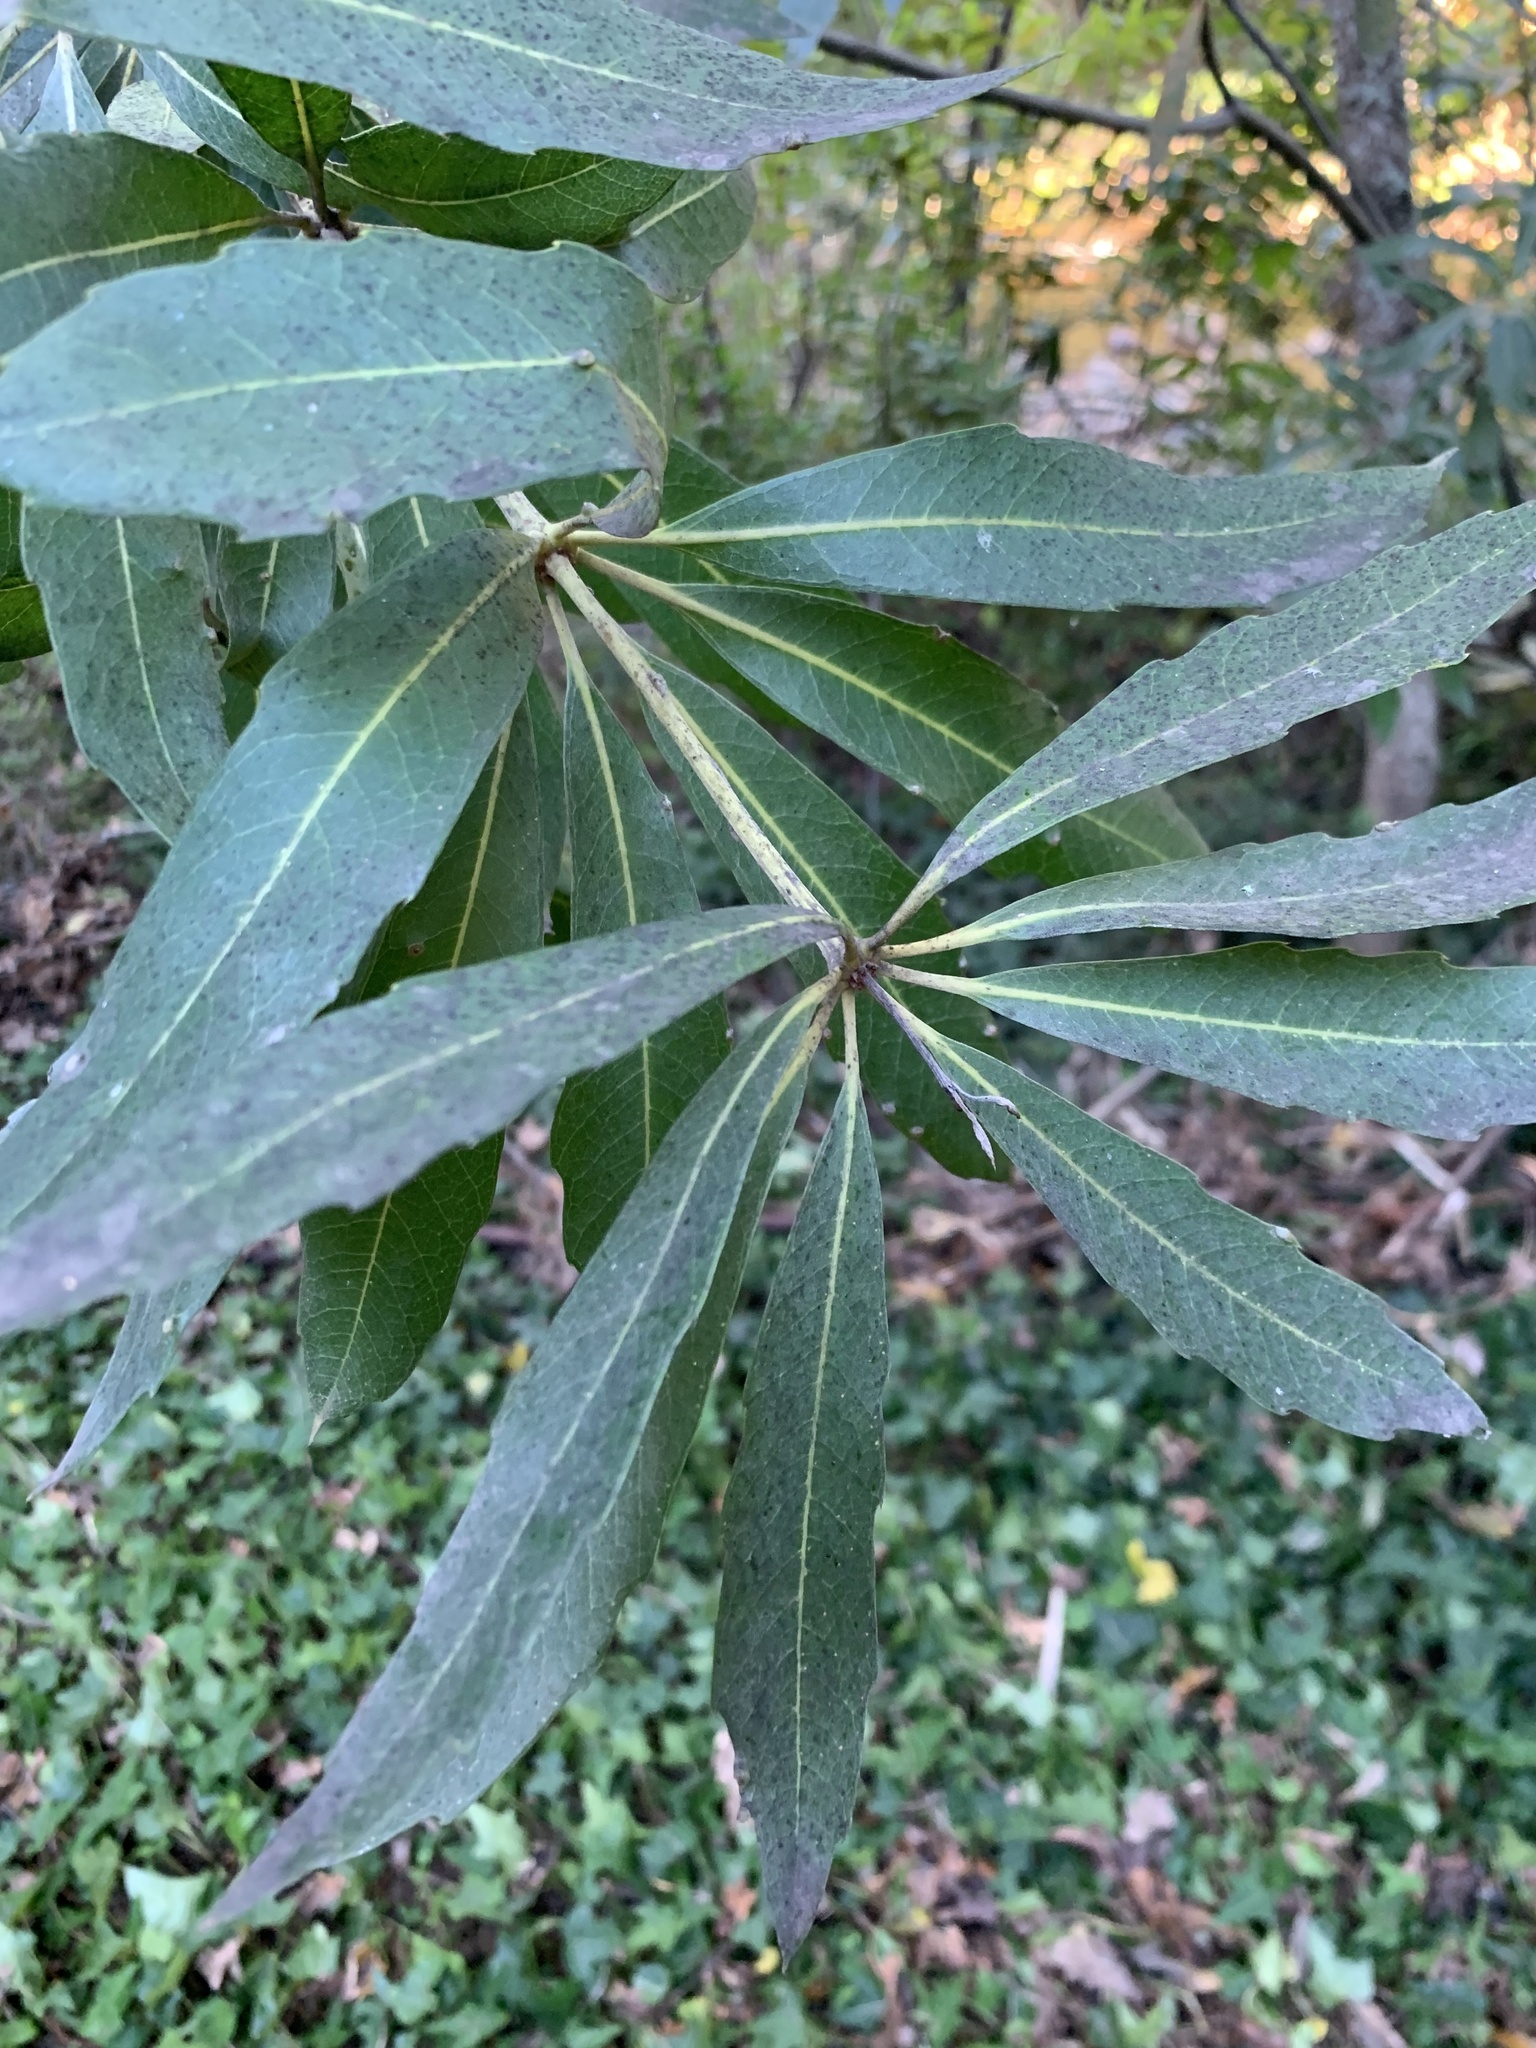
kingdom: Plantae
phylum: Tracheophyta
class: Magnoliopsida
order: Proteales
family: Proteaceae
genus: Brabejum
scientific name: Brabejum stellatifolium
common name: Wild almond
